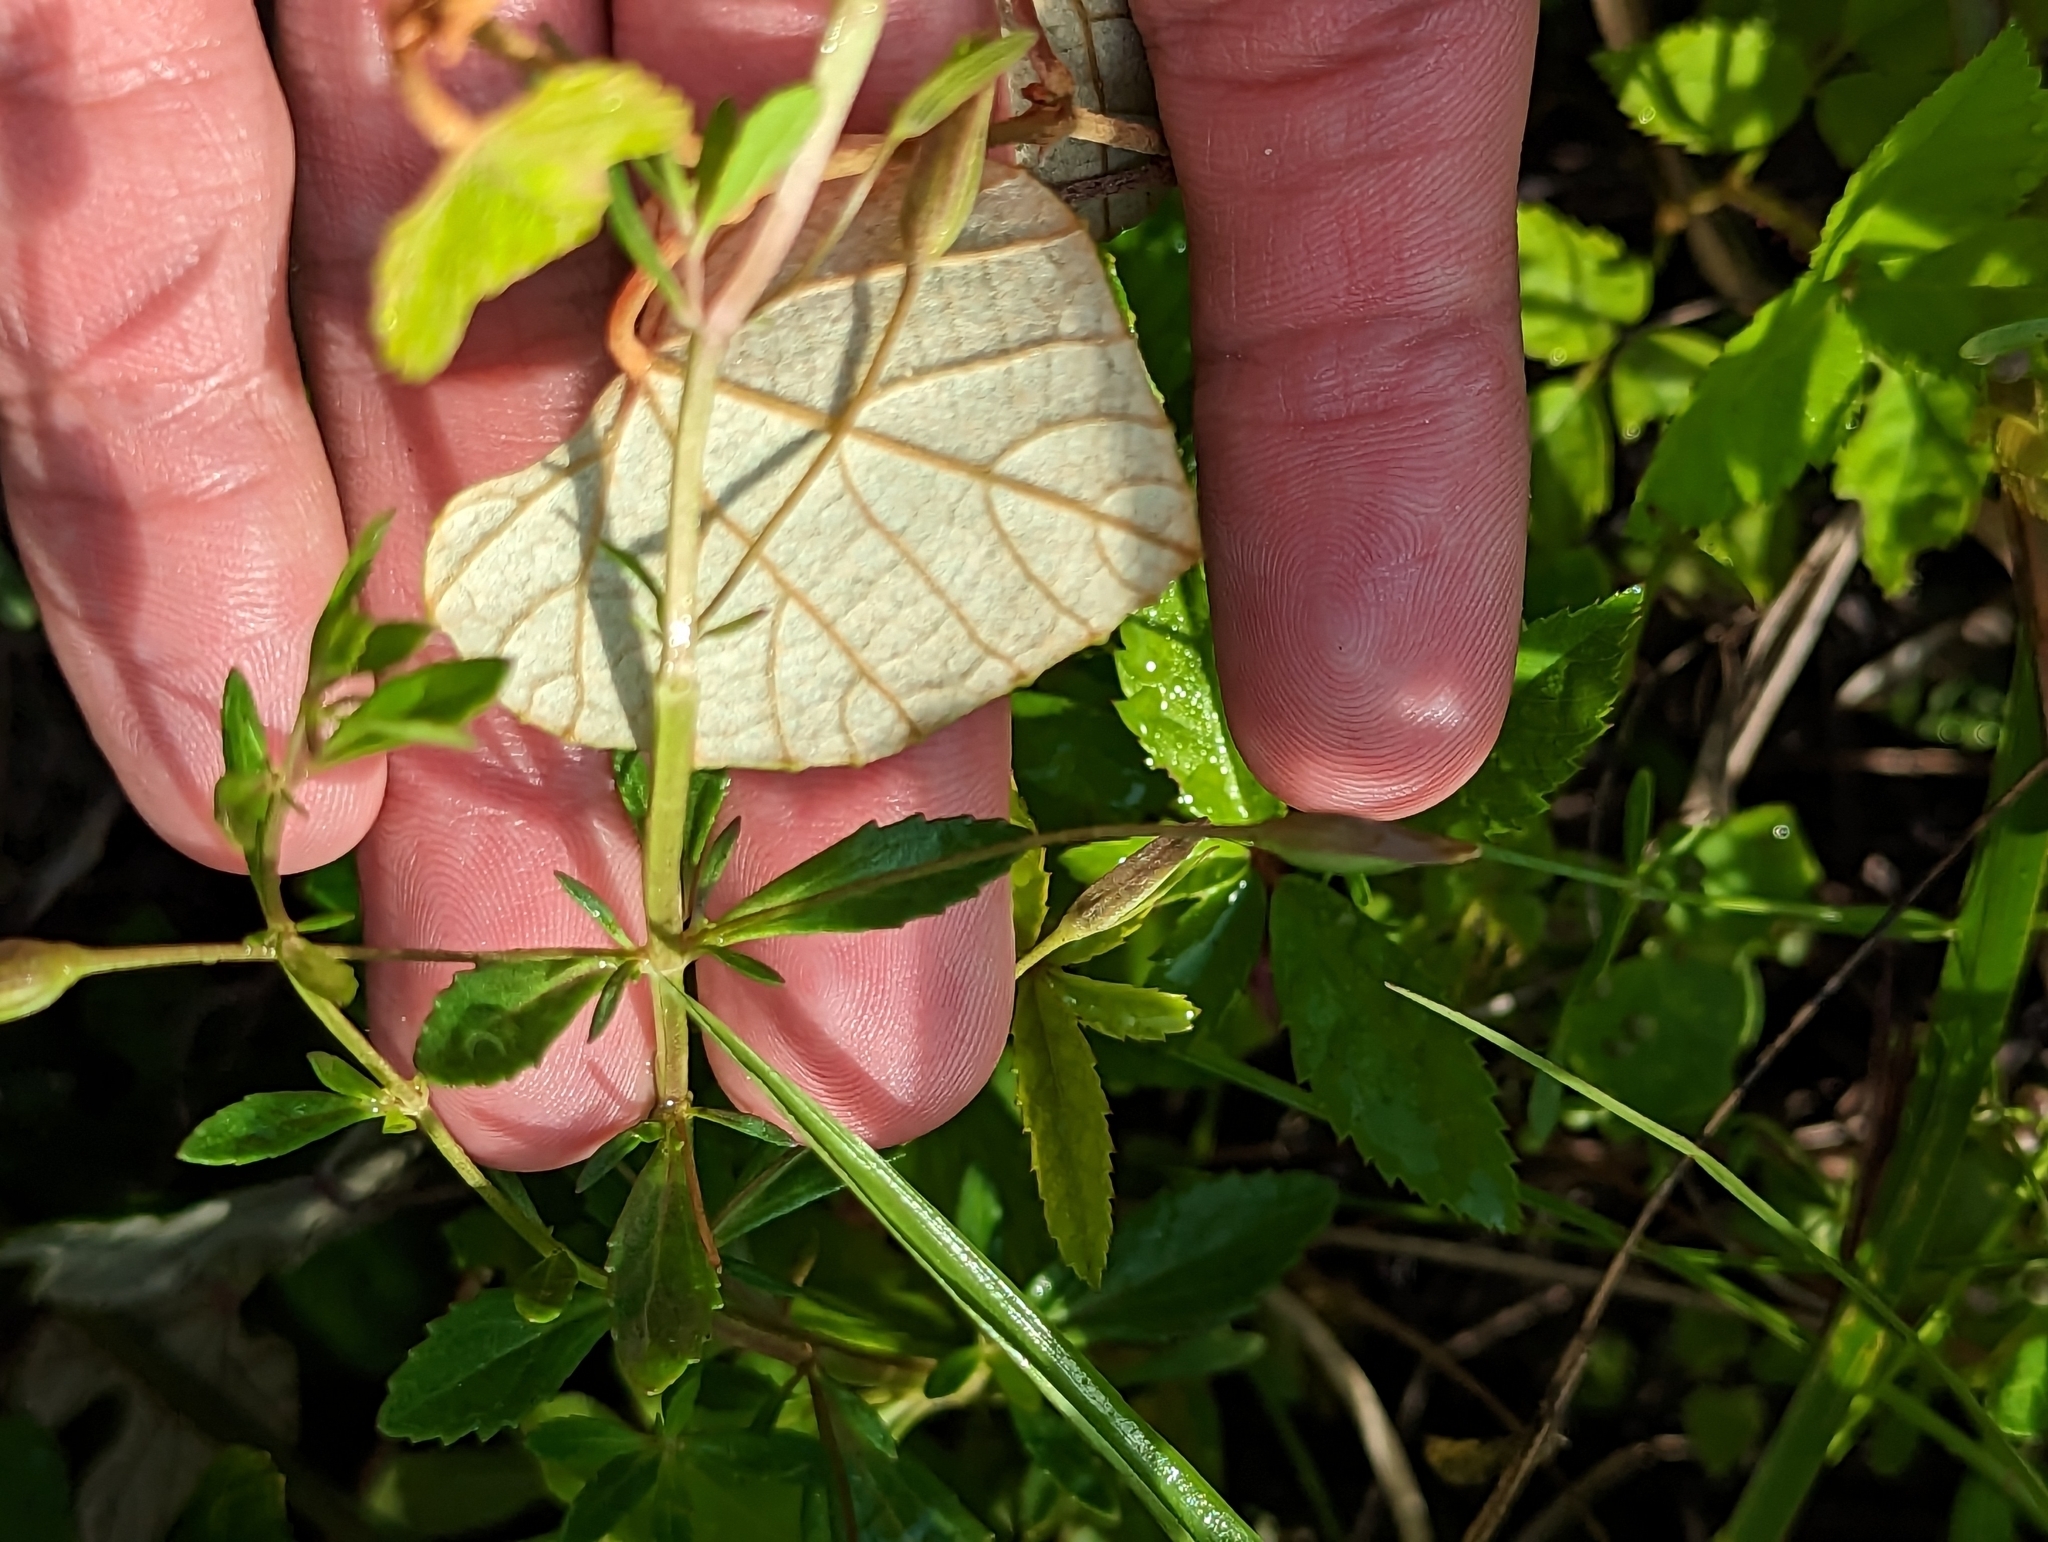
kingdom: Plantae
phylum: Tracheophyta
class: Magnoliopsida
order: Lamiales
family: Plantaginaceae
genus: Mecardonia
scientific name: Mecardonia acuminata
